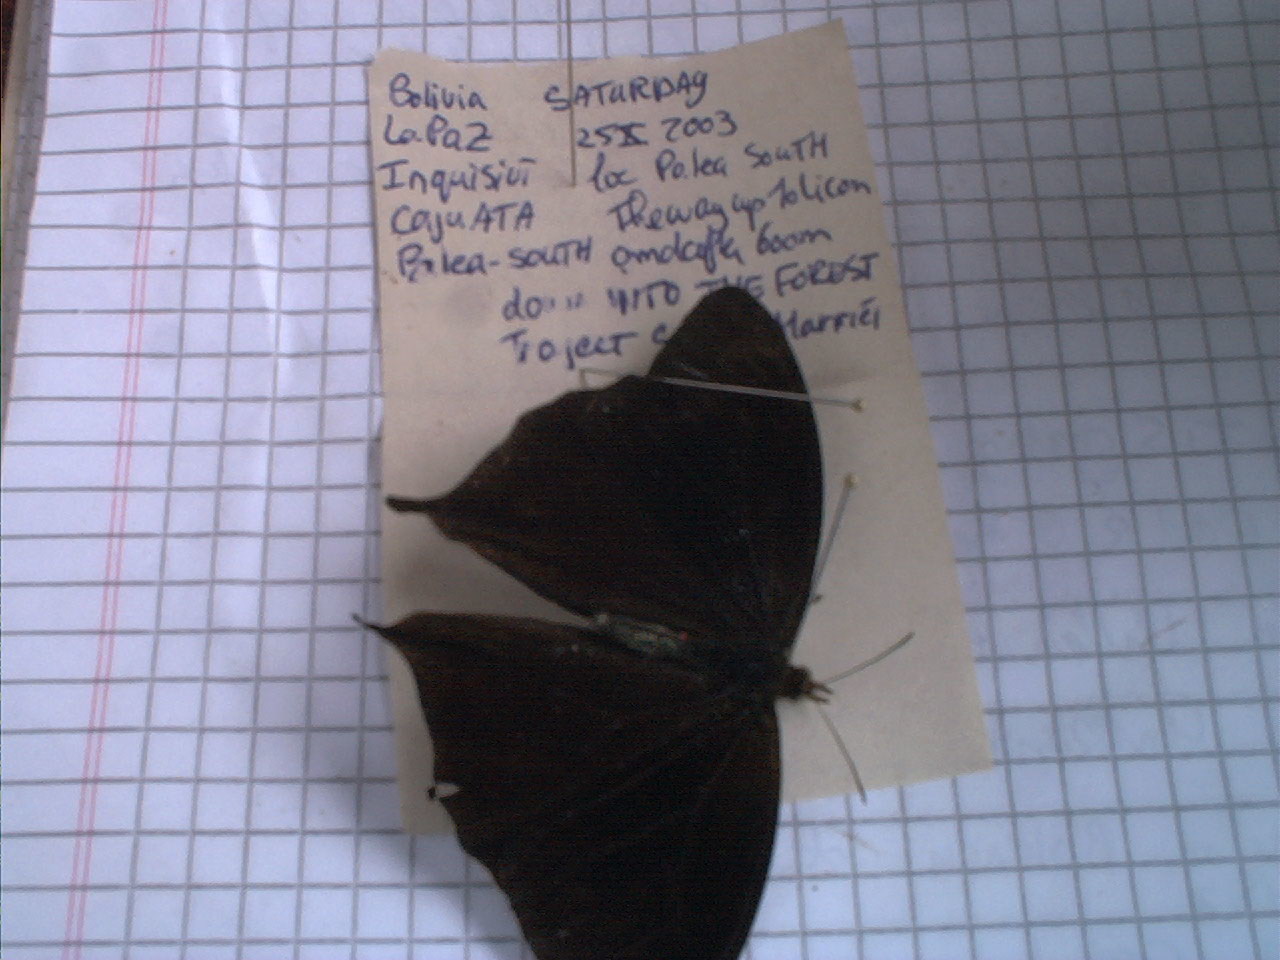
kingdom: Animalia
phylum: Arthropoda
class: Insecta
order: Lepidoptera
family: Nymphalidae
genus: Corades
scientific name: Corades medeba
